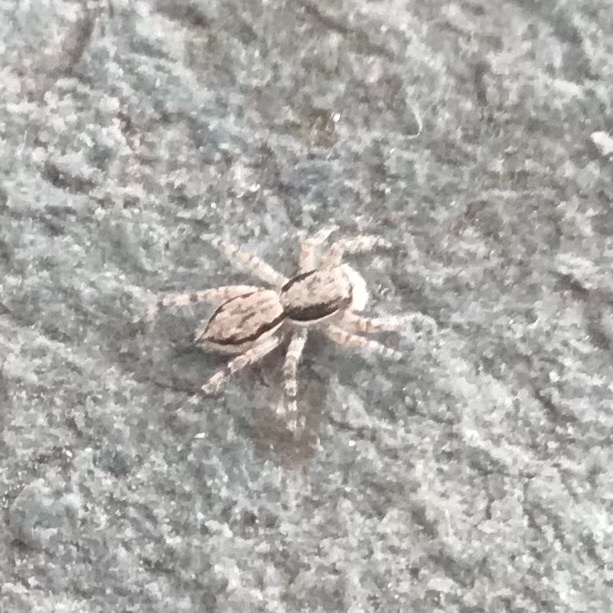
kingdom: Animalia
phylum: Arthropoda
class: Arachnida
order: Araneae
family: Salticidae
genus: Menemerus
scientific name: Menemerus bivittatus
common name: Gray wall jumper
